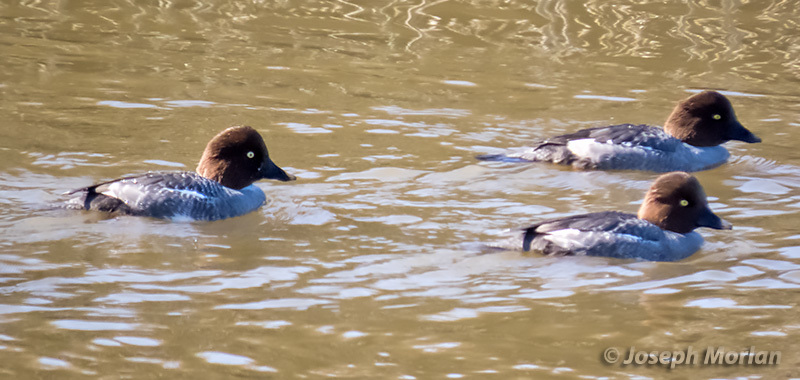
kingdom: Animalia
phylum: Chordata
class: Aves
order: Anseriformes
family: Anatidae
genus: Bucephala
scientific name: Bucephala clangula
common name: Common goldeneye
